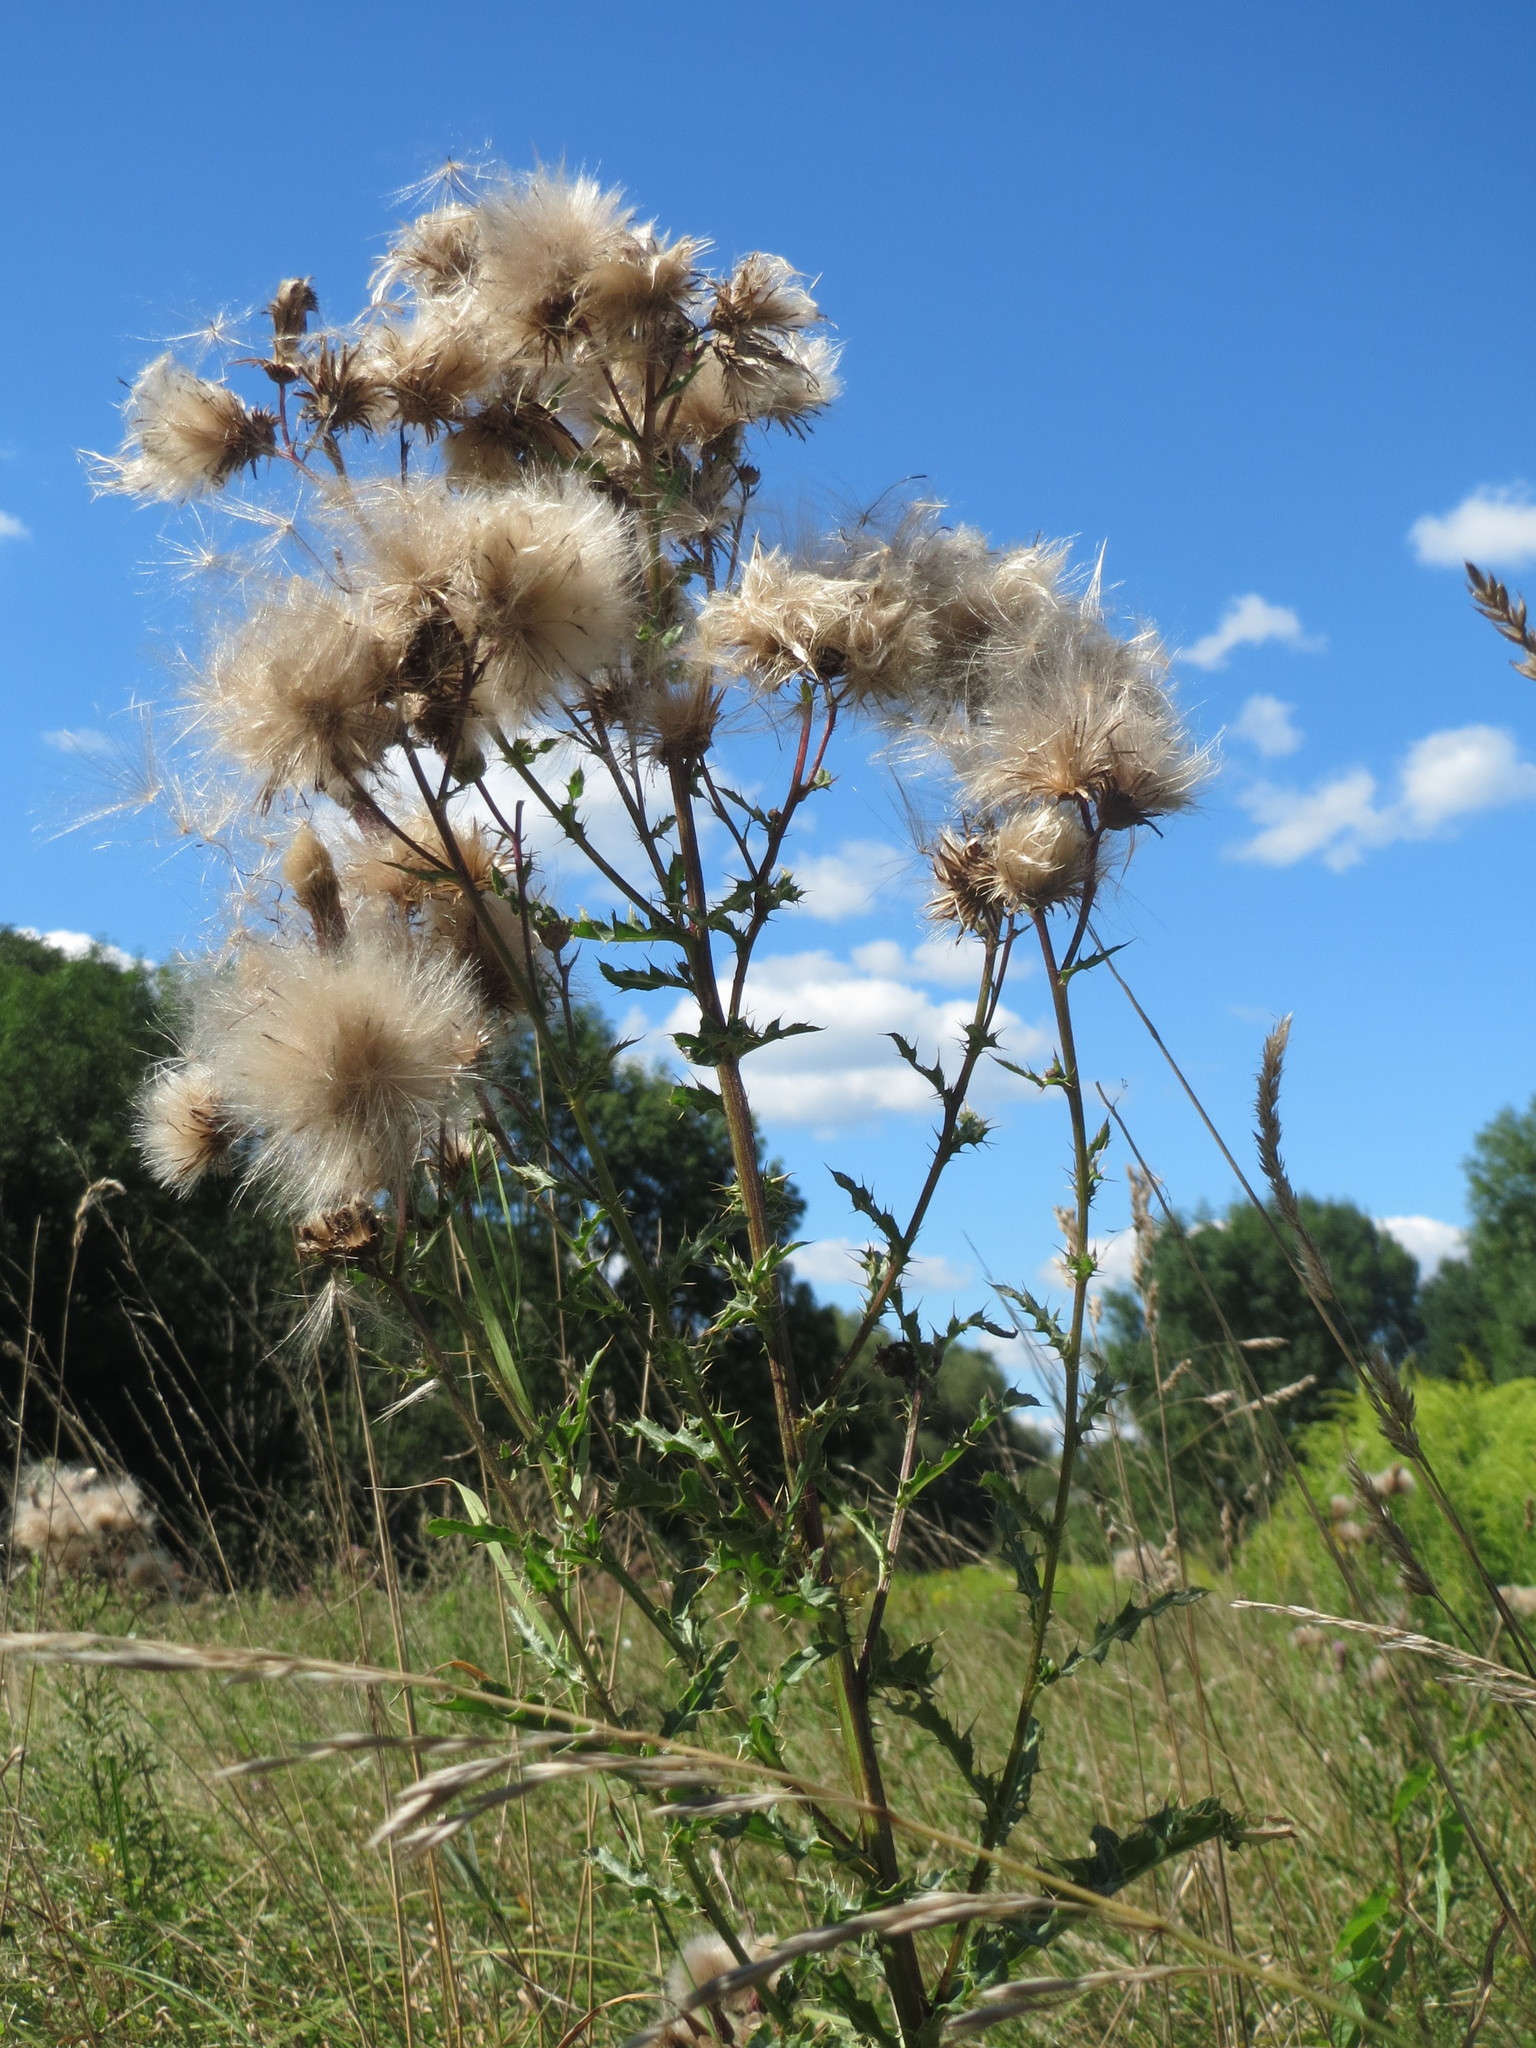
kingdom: Plantae
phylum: Tracheophyta
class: Magnoliopsida
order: Asterales
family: Asteraceae
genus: Cirsium
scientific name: Cirsium arvense
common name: Creeping thistle
